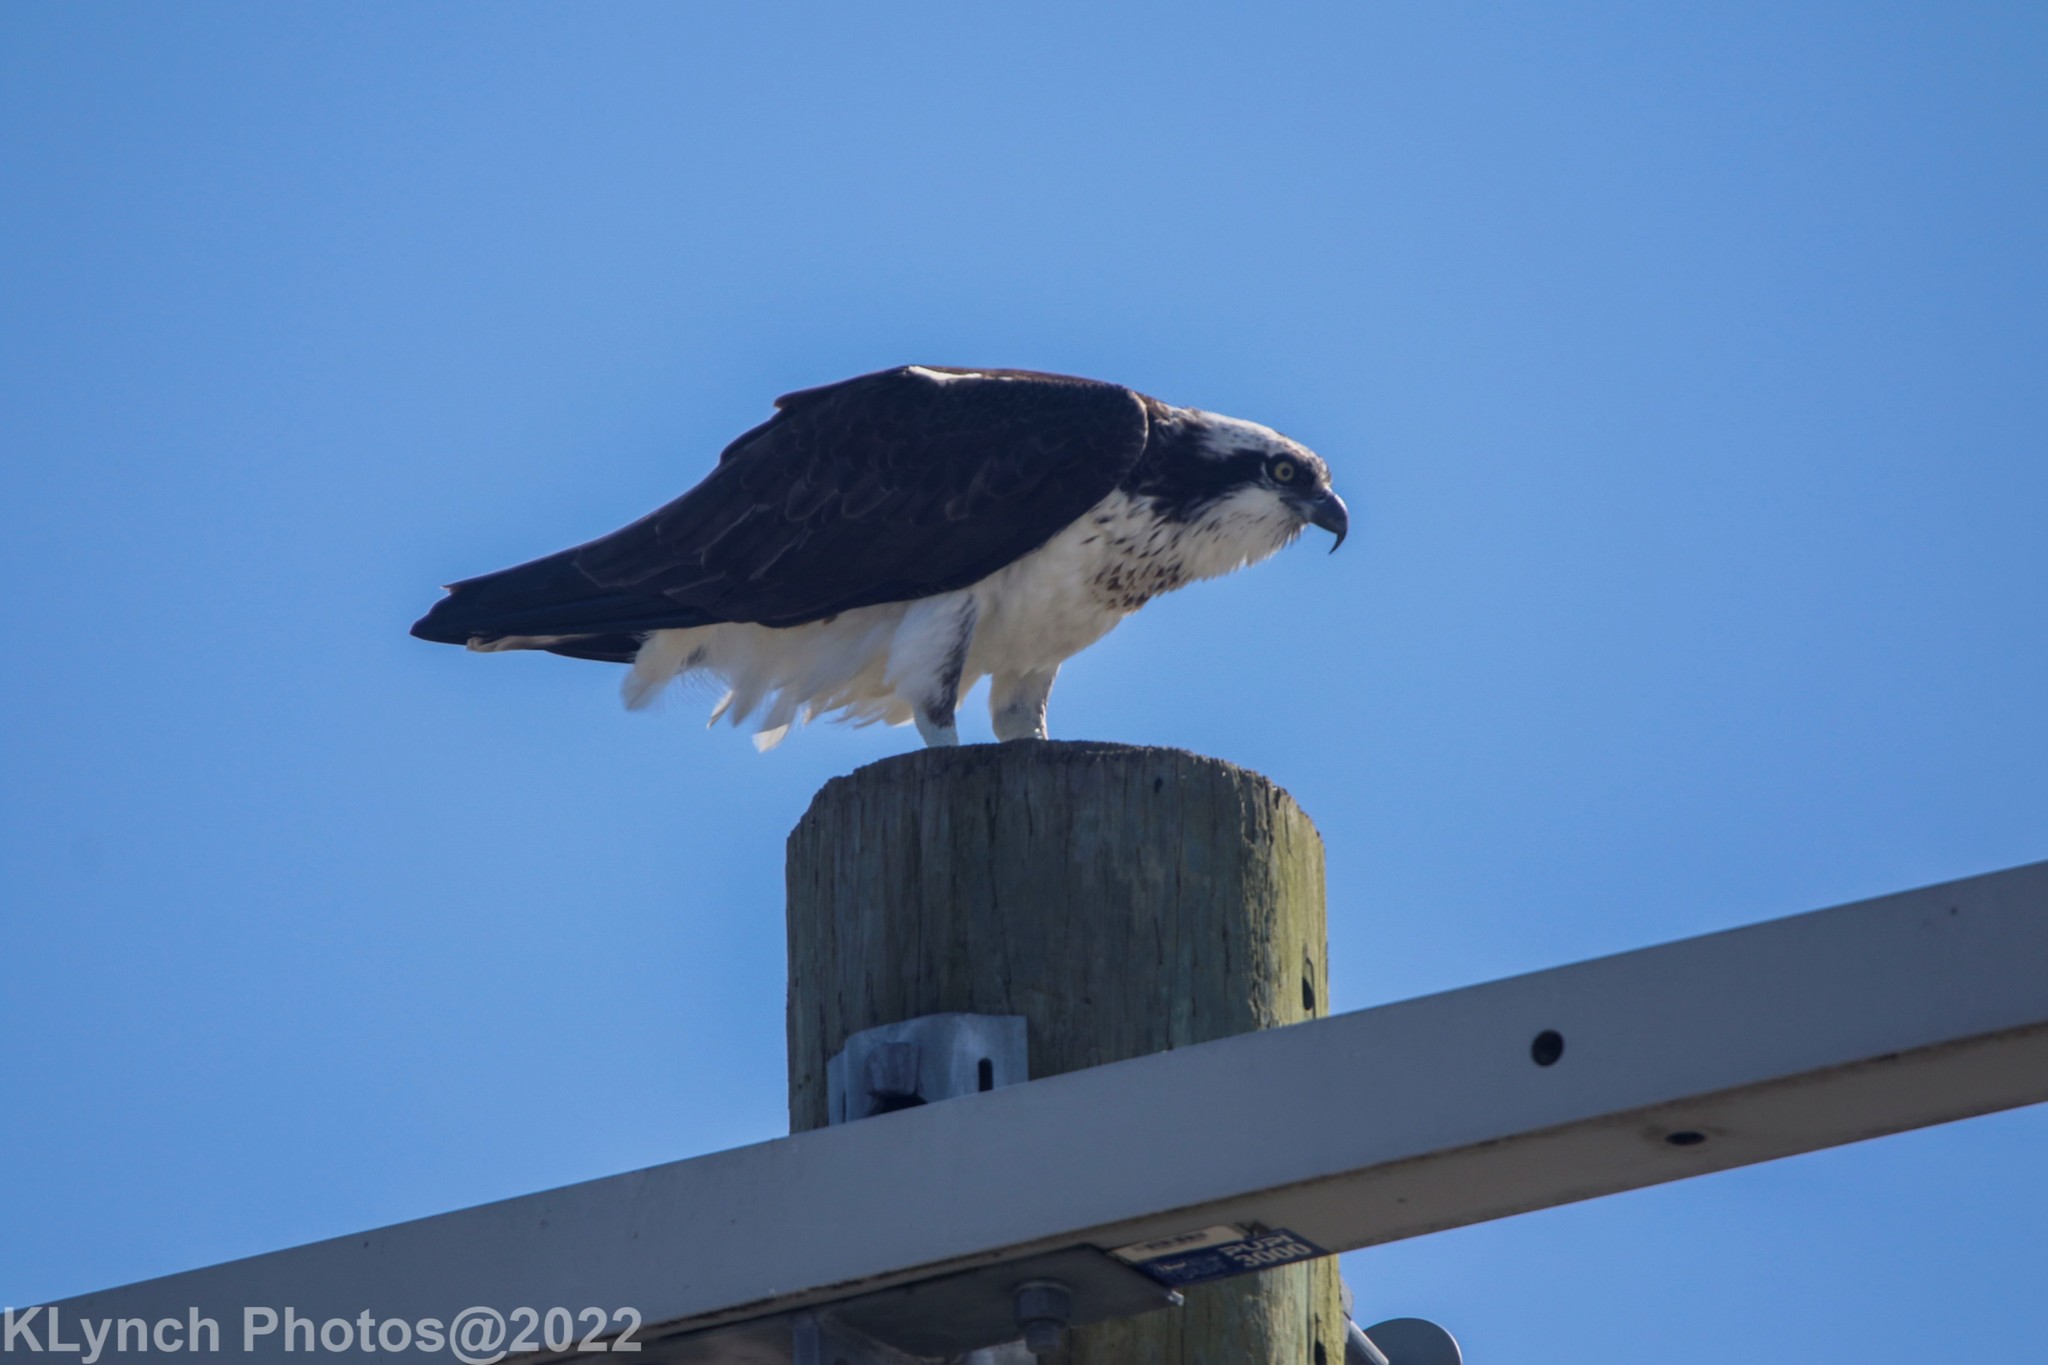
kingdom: Animalia
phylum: Chordata
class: Aves
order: Accipitriformes
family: Pandionidae
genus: Pandion
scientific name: Pandion haliaetus
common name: Osprey
